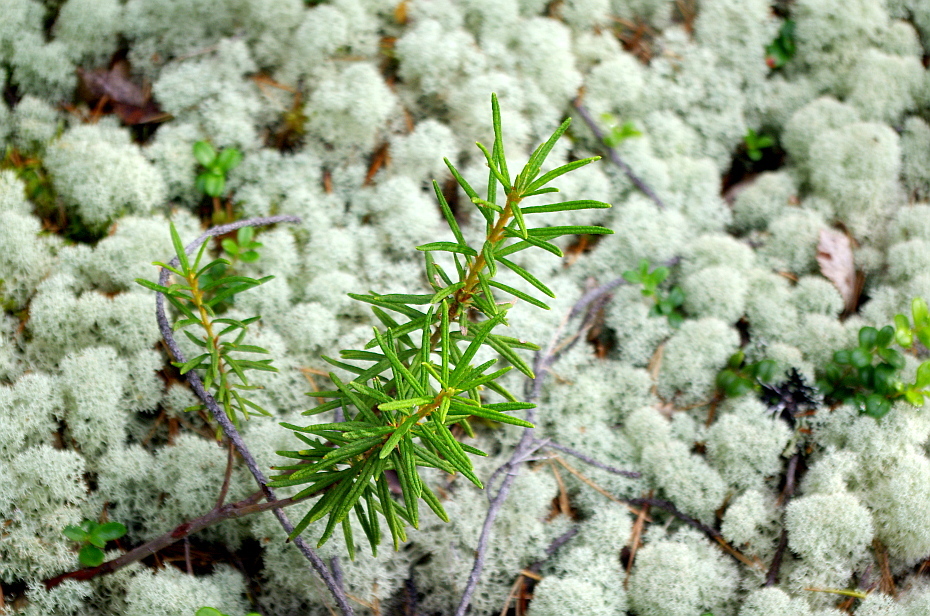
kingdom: Plantae
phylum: Tracheophyta
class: Magnoliopsida
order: Ericales
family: Ericaceae
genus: Rhododendron
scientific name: Rhododendron tomentosum
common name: Marsh labrador tea
